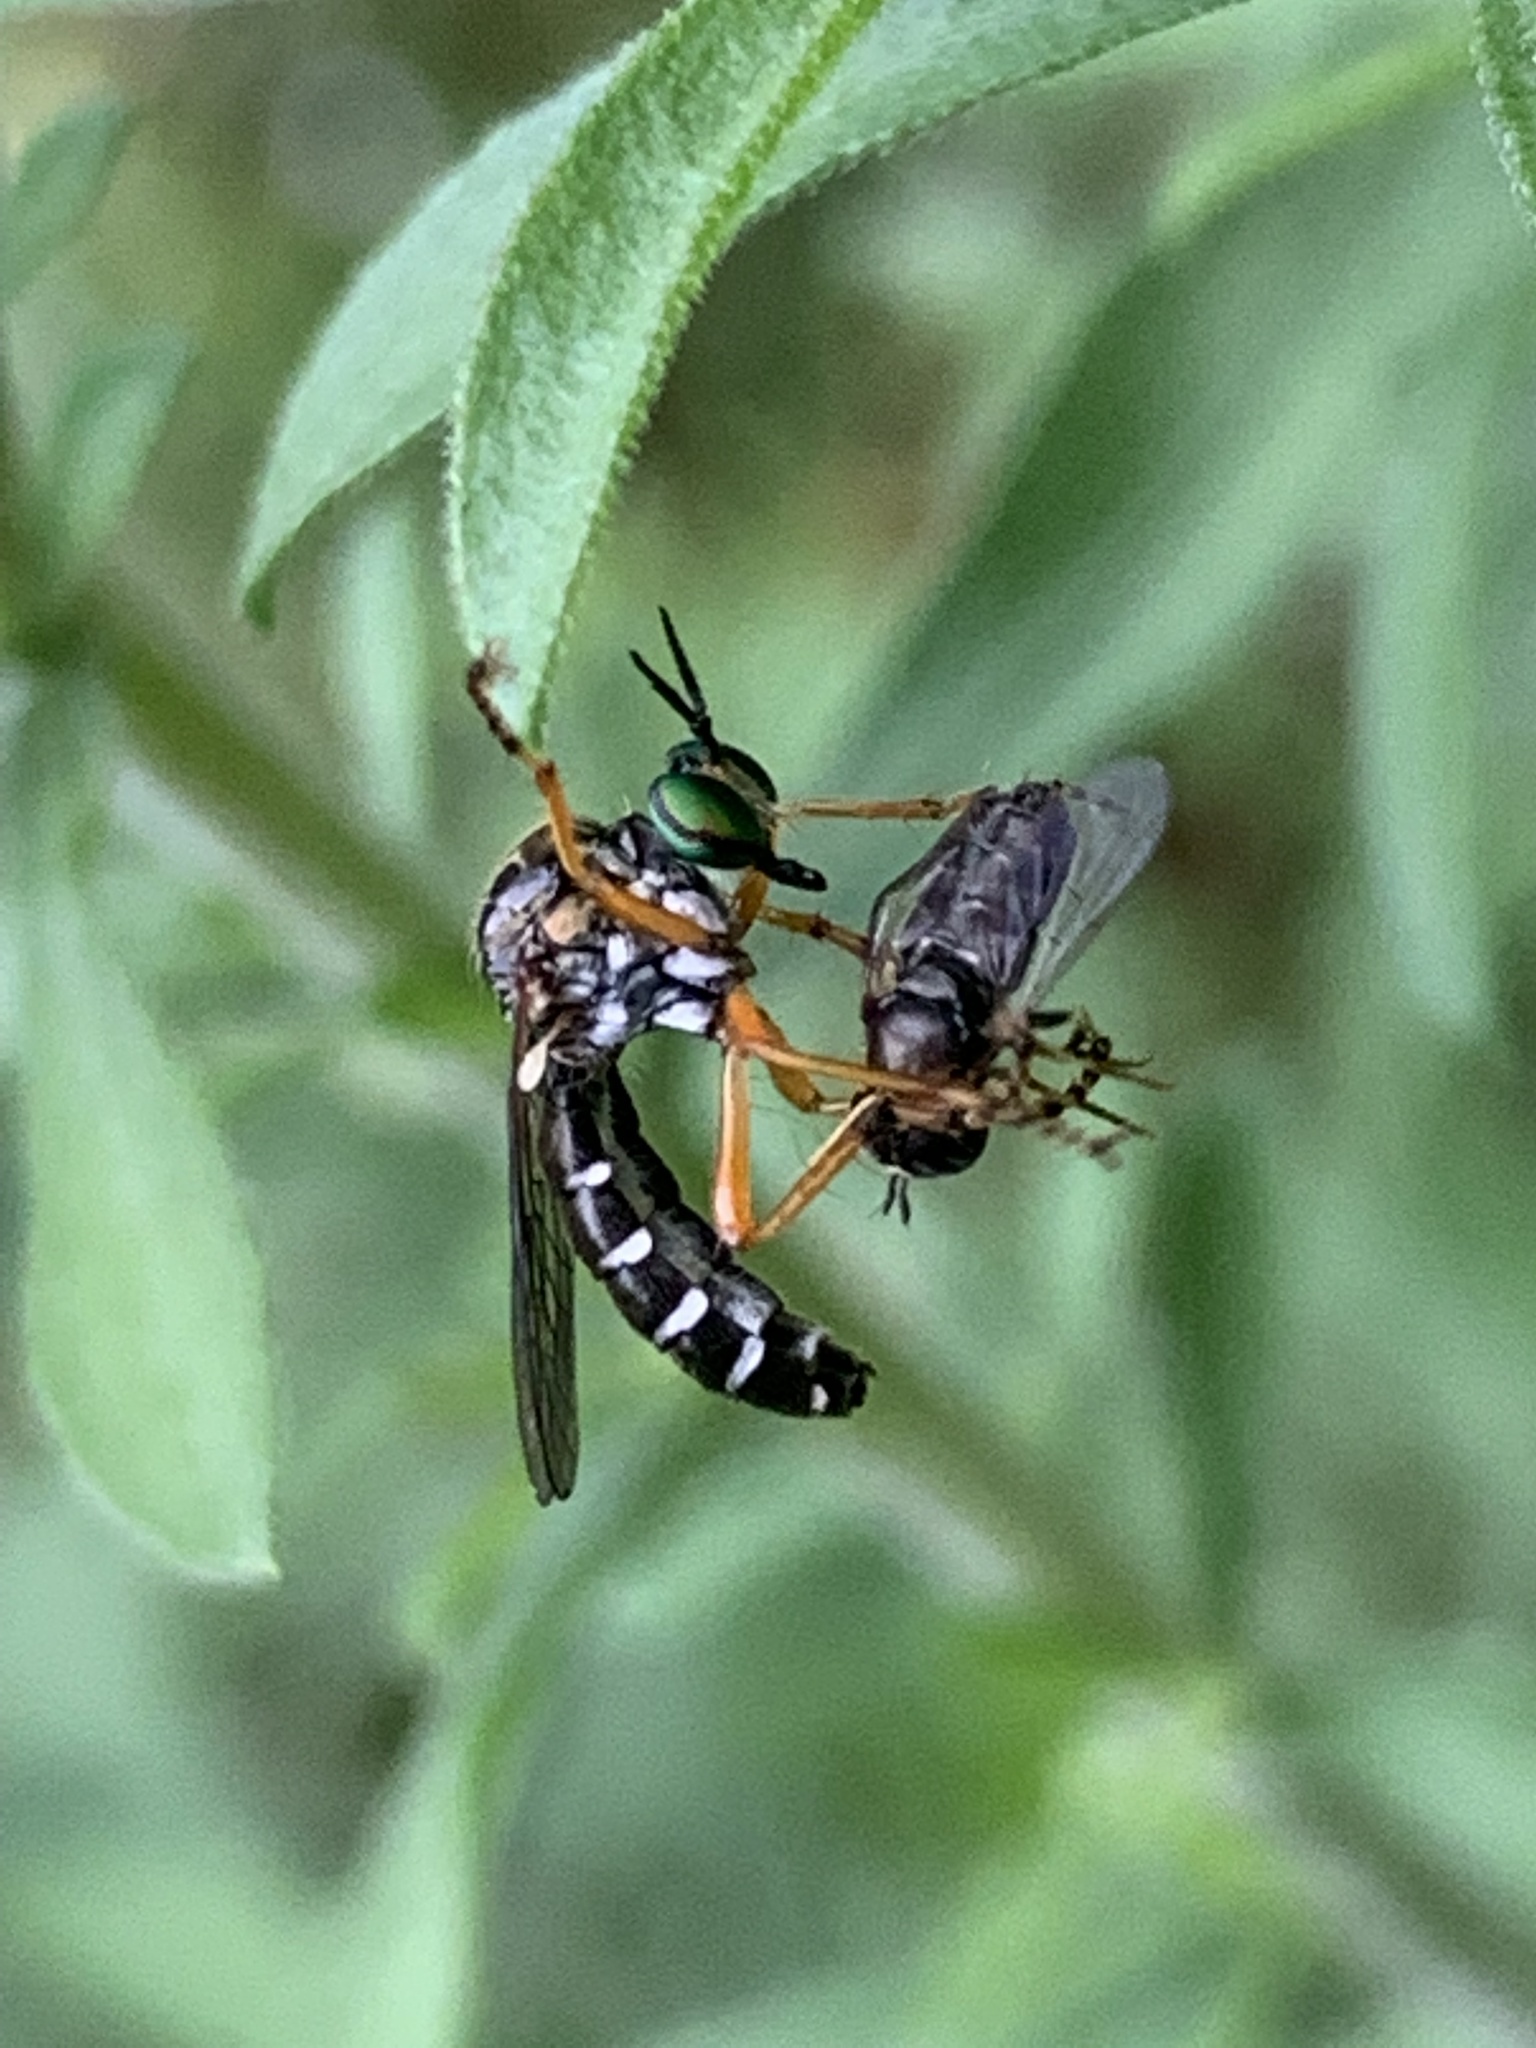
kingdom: Animalia
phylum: Arthropoda
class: Insecta
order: Diptera
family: Asilidae
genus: Taracticus
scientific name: Taracticus octopunctatus
